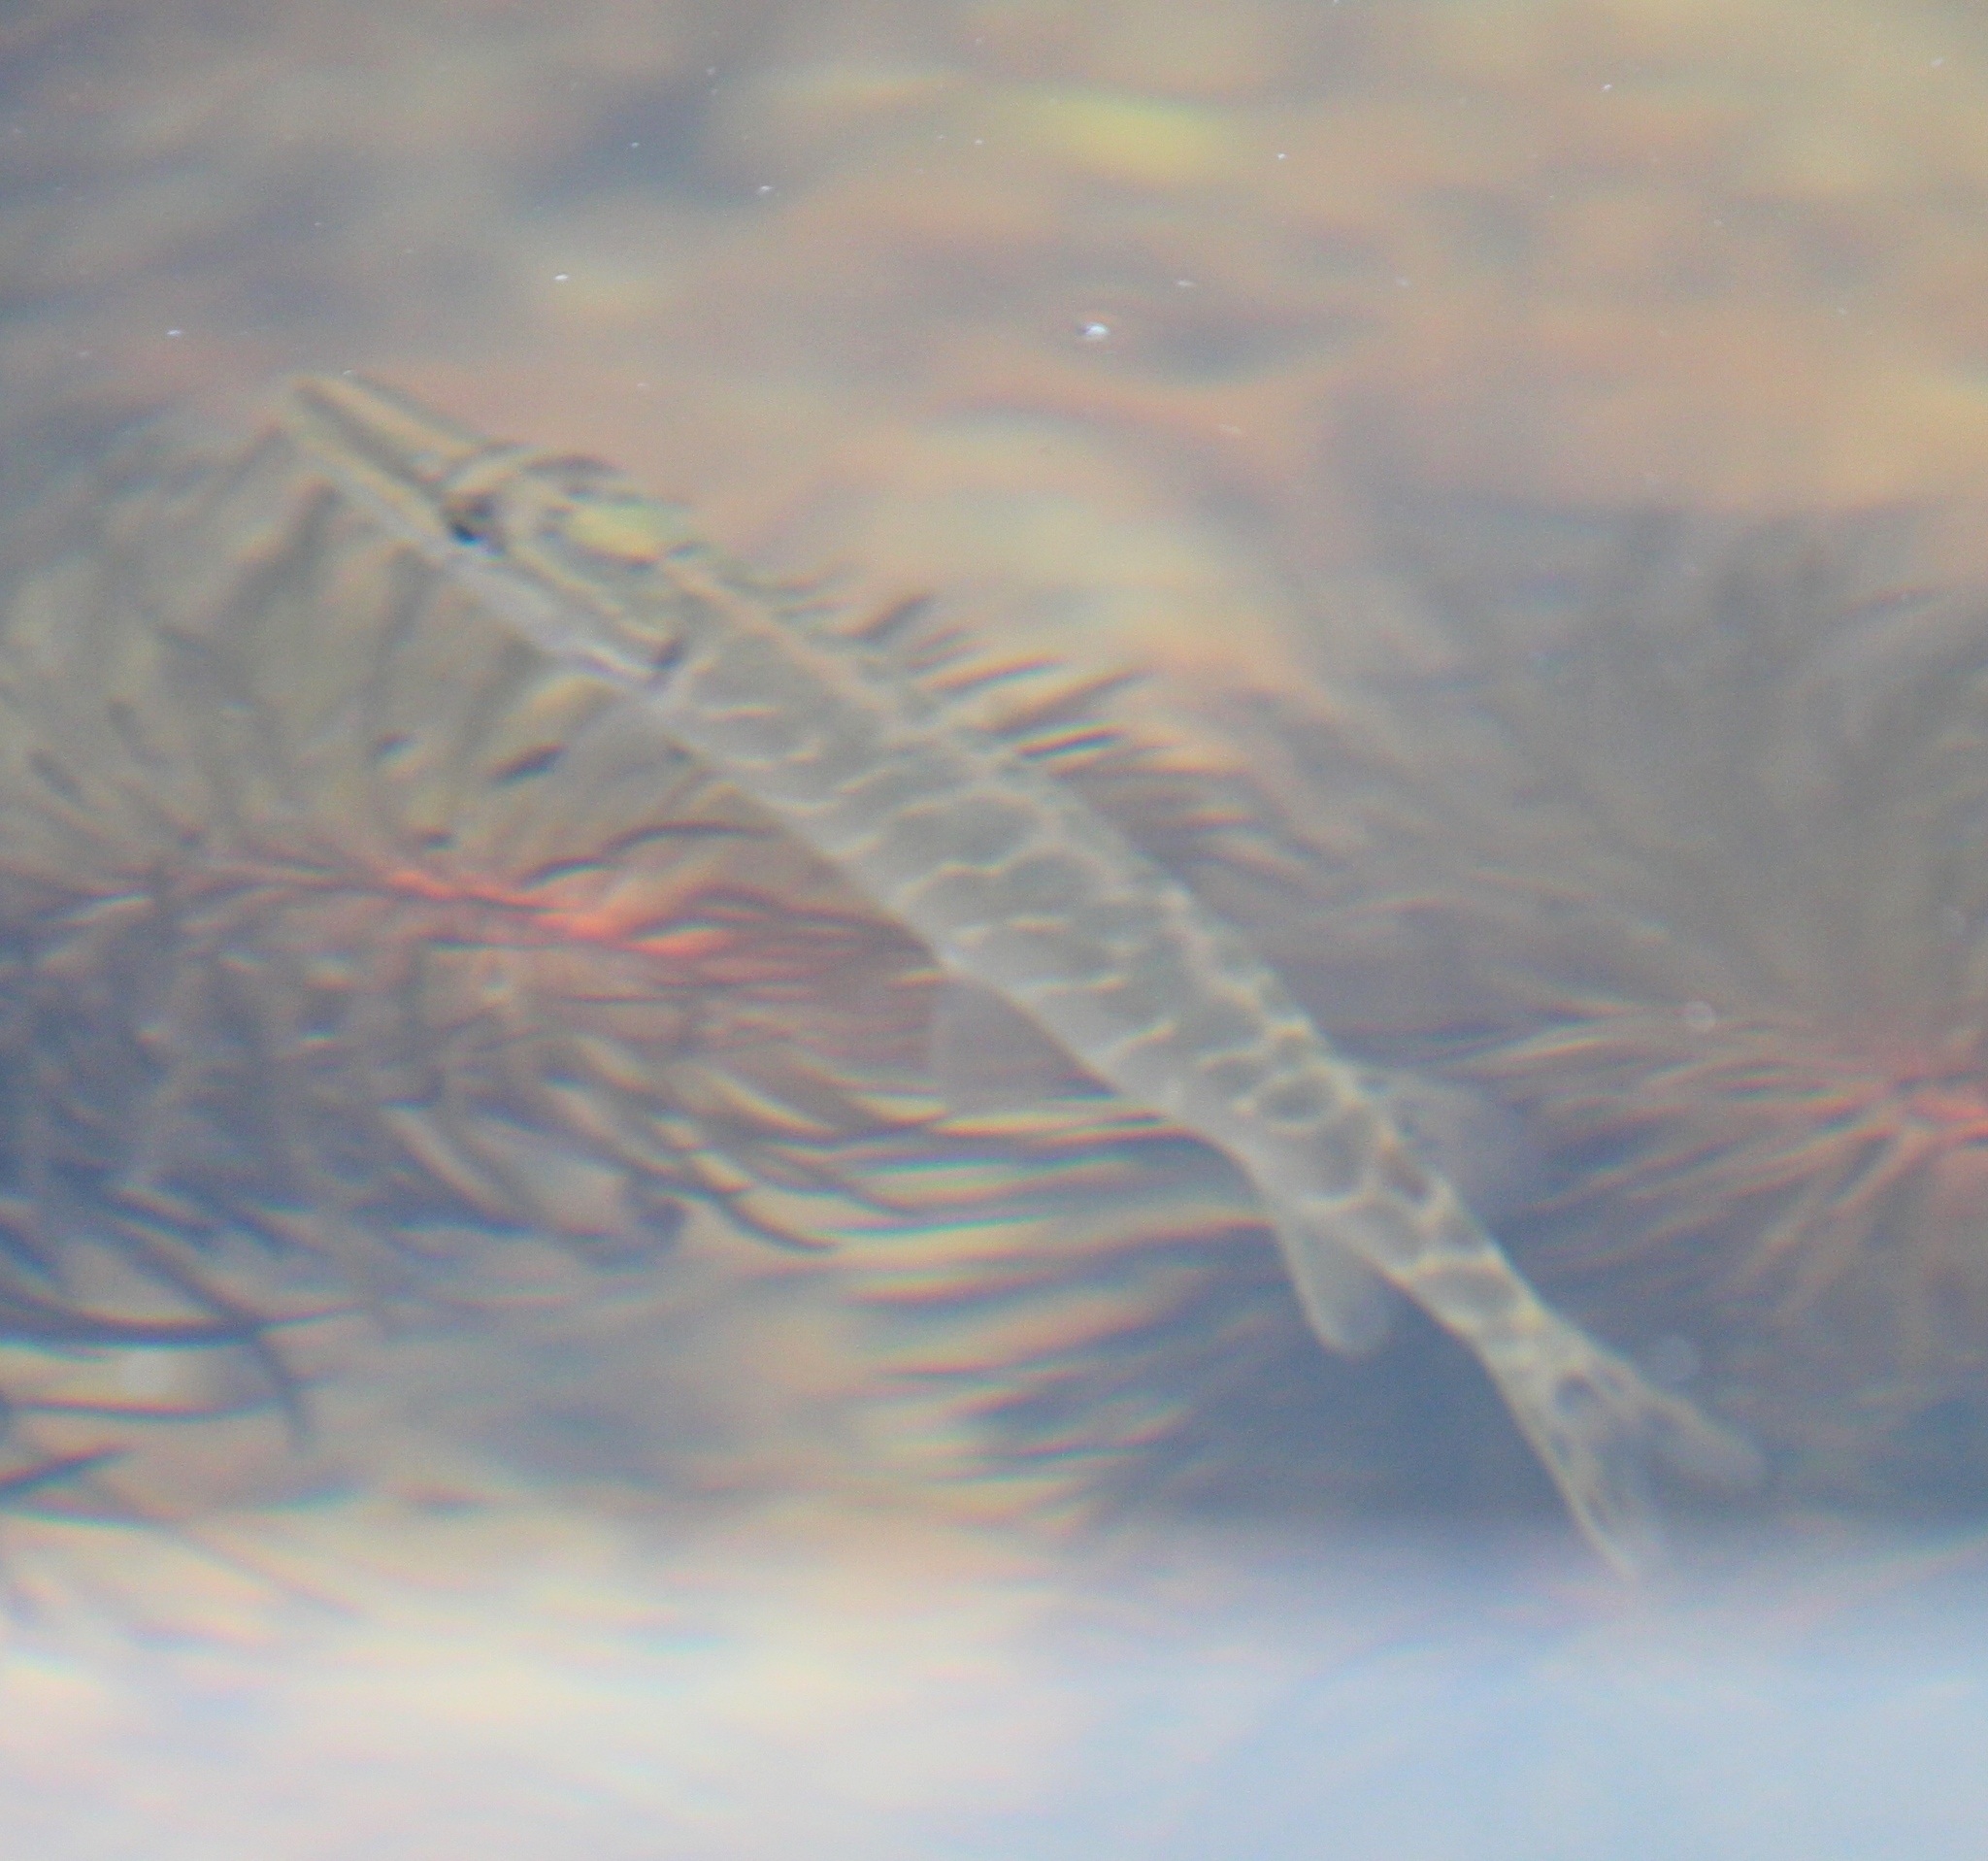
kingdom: Animalia
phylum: Chordata
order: Esociformes
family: Esocidae
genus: Esox
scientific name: Esox lucius
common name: Northern pike
